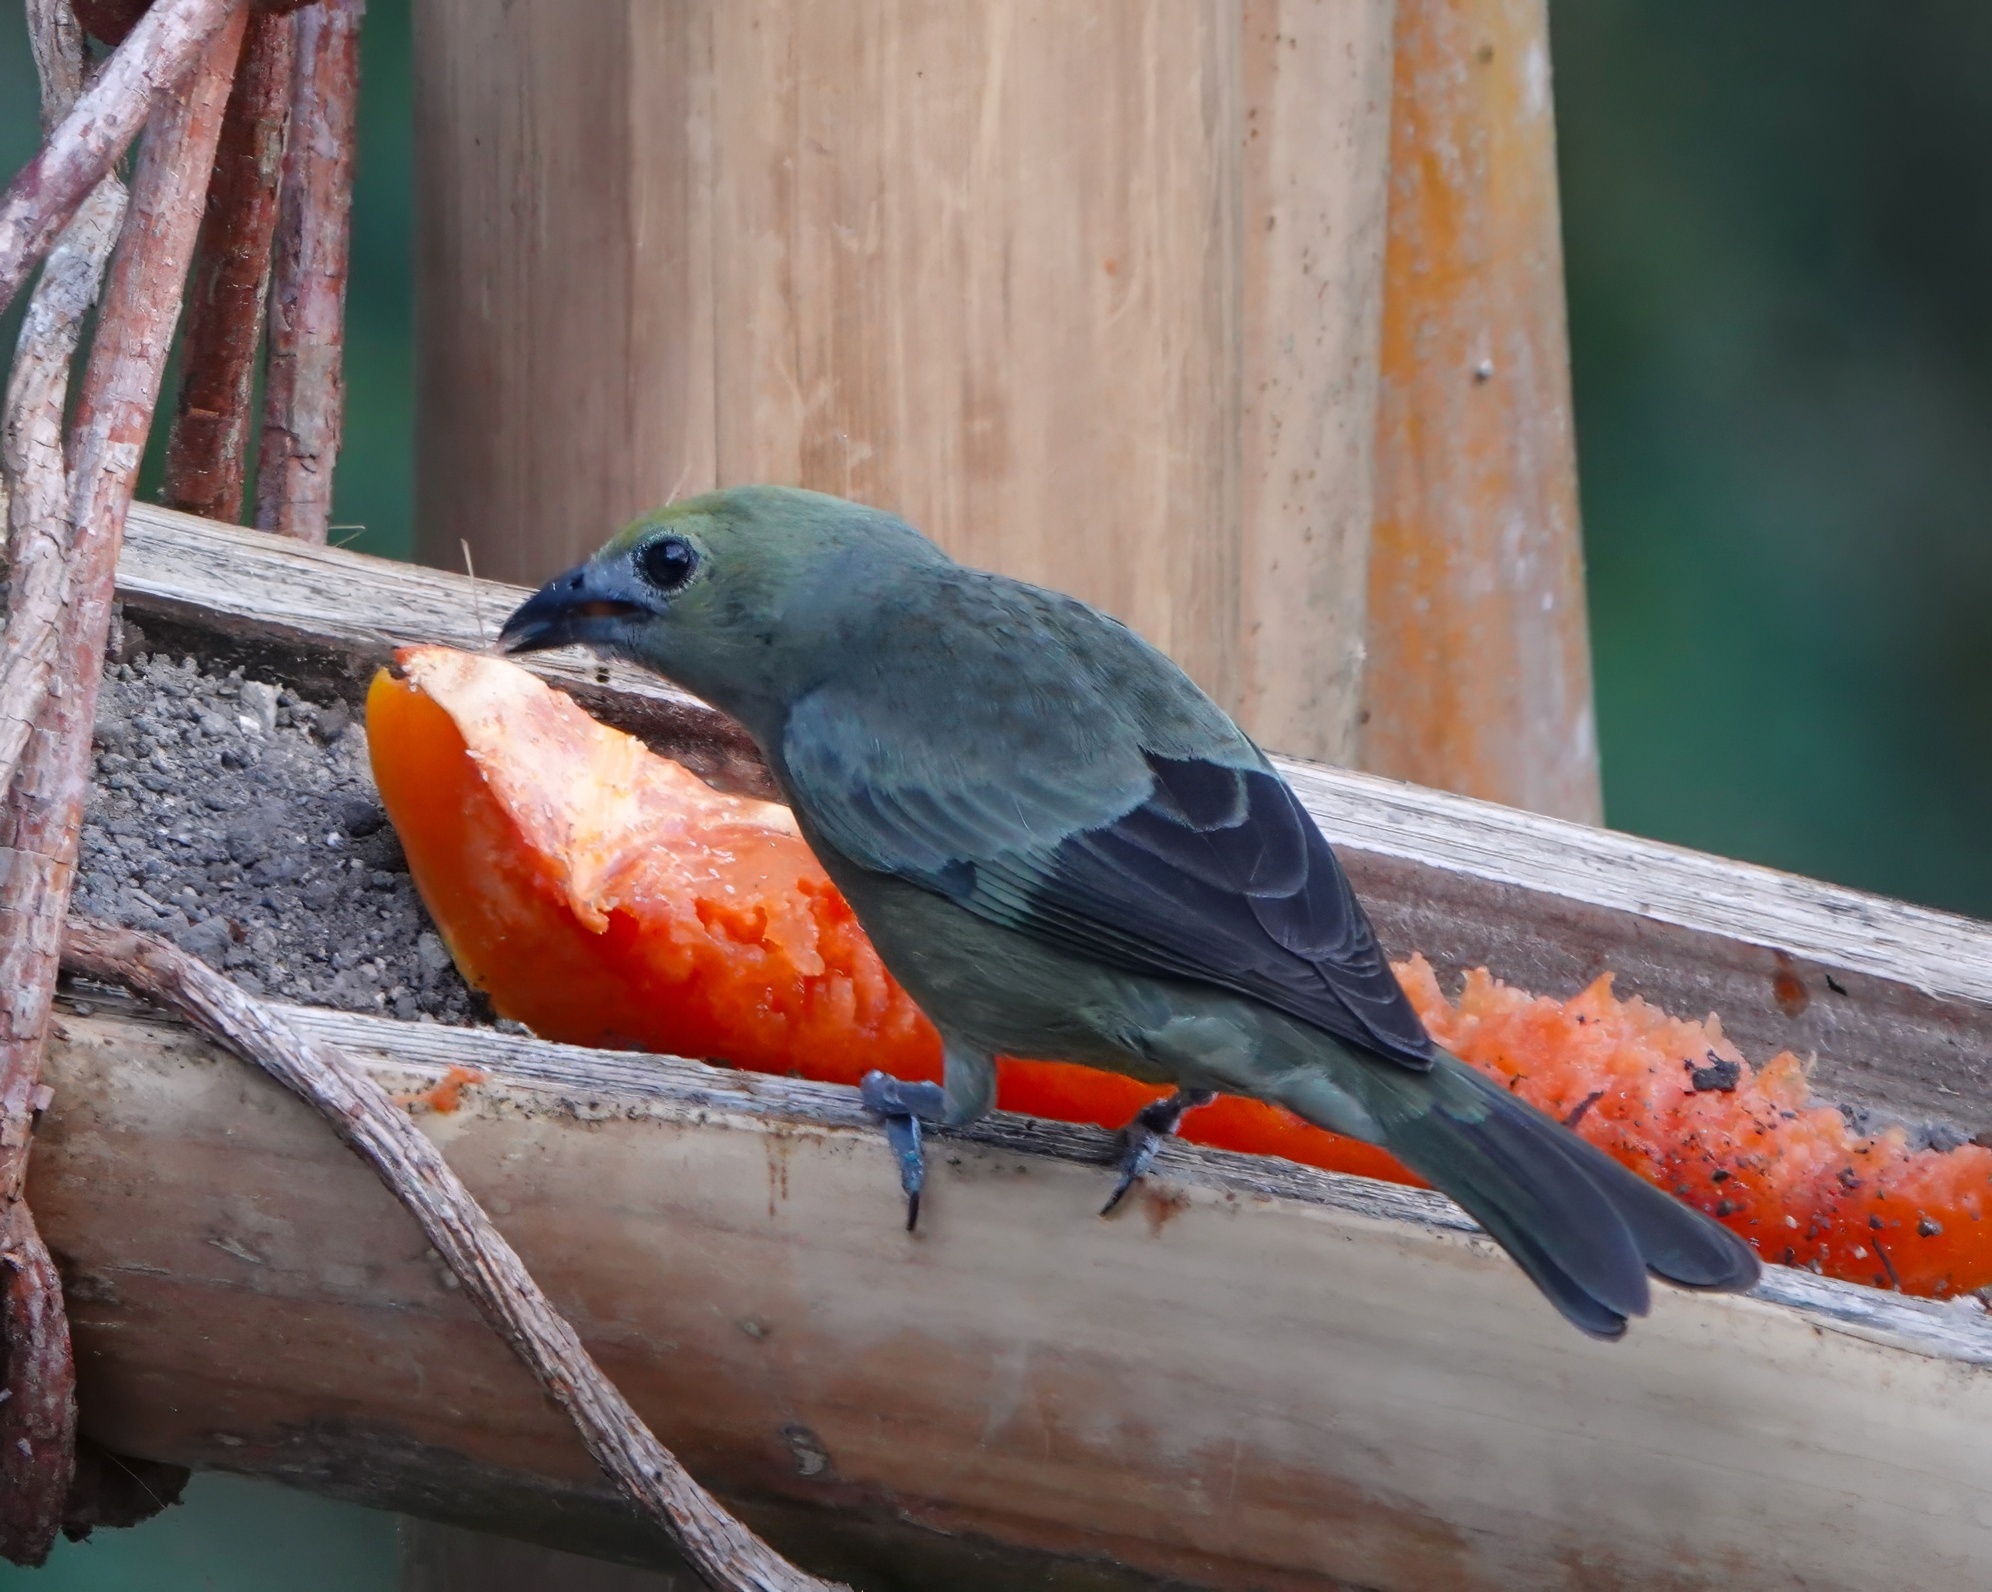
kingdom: Animalia
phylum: Chordata
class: Aves
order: Passeriformes
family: Thraupidae
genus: Thraupis
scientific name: Thraupis palmarum
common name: Palm tanager
